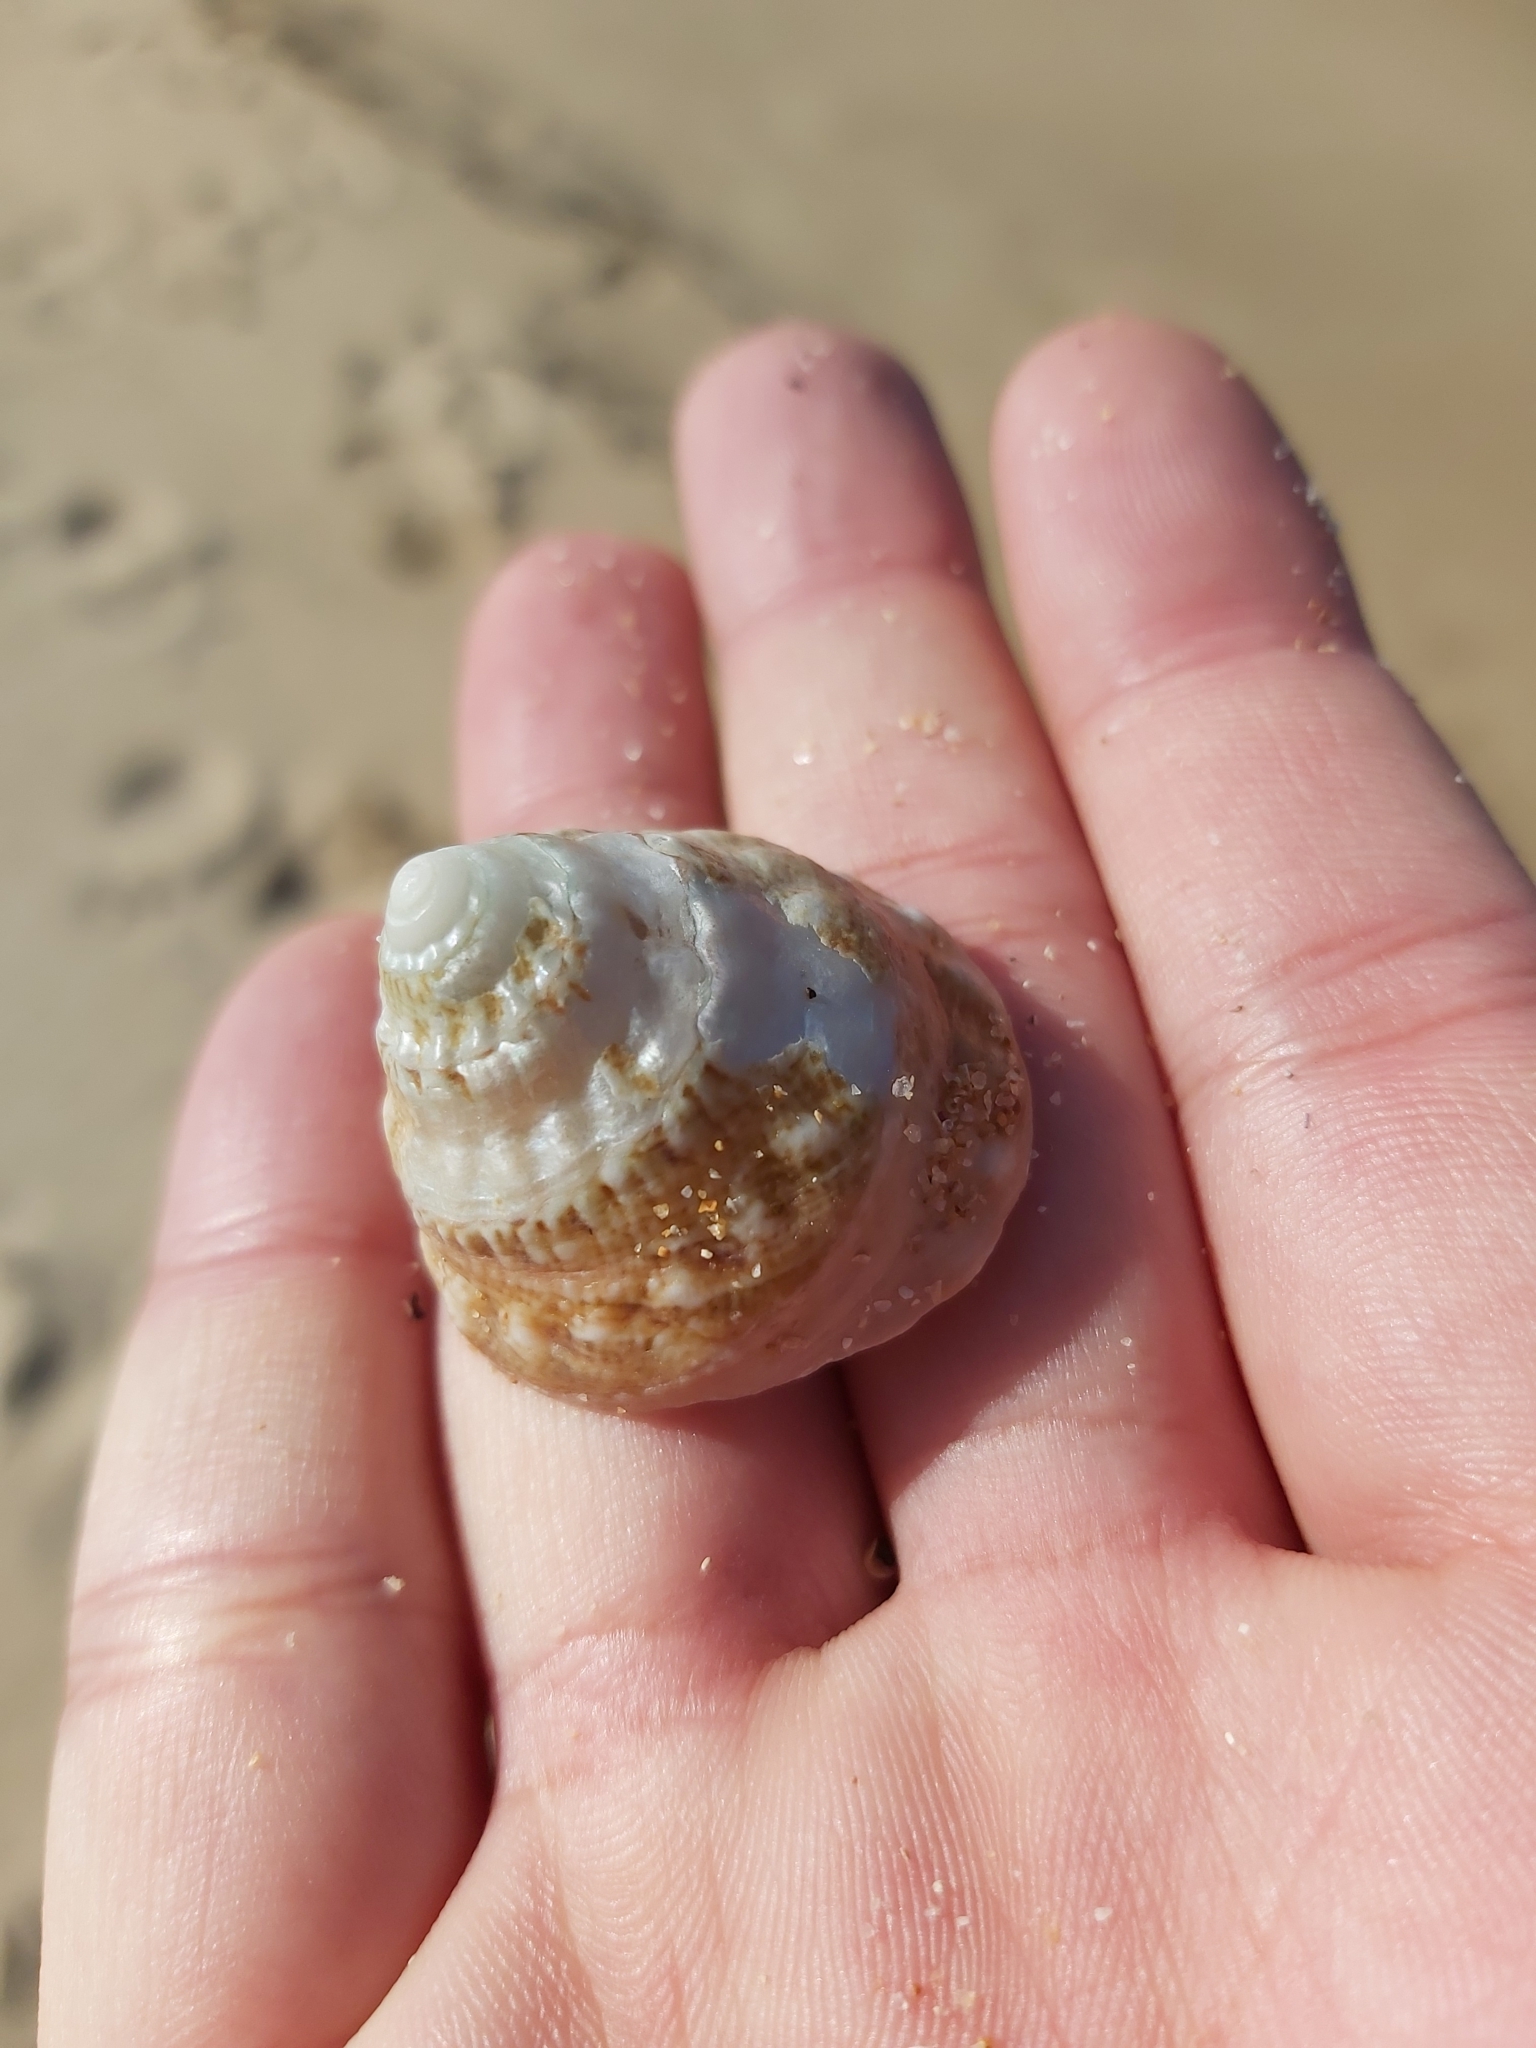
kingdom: Animalia
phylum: Mollusca
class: Gastropoda
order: Trochida
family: Turbinidae
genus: Astralium
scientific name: Astralium tentoriiforme
